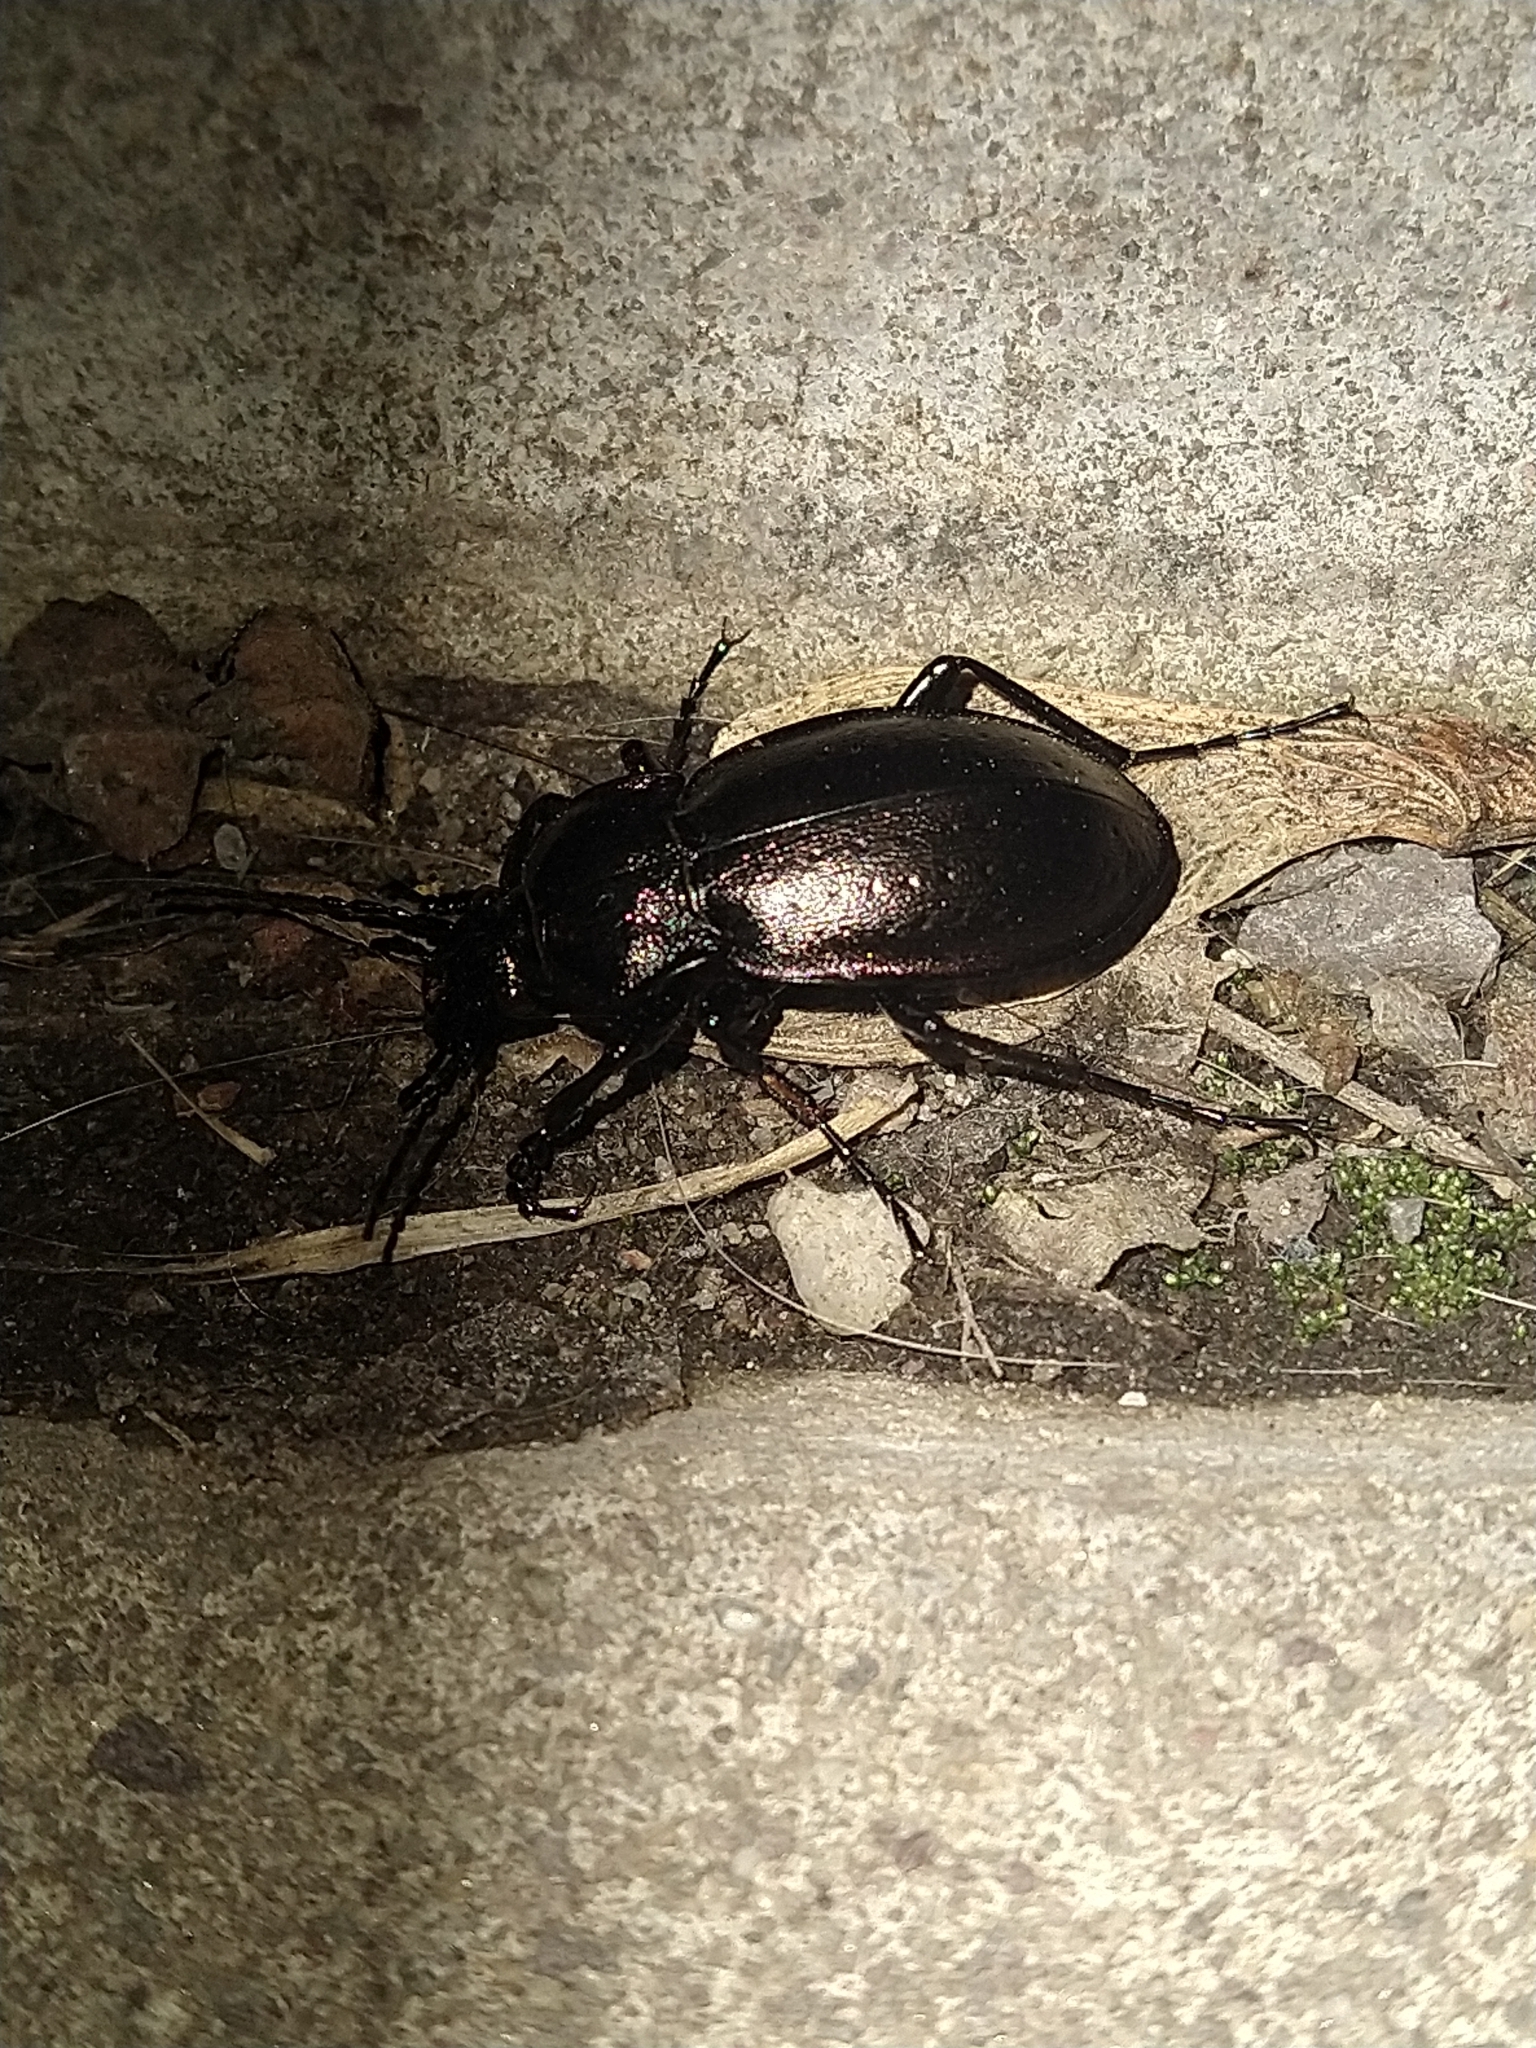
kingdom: Animalia
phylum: Arthropoda
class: Insecta
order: Coleoptera
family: Carabidae
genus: Carabus
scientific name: Carabus nemoralis
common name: European ground beetle
